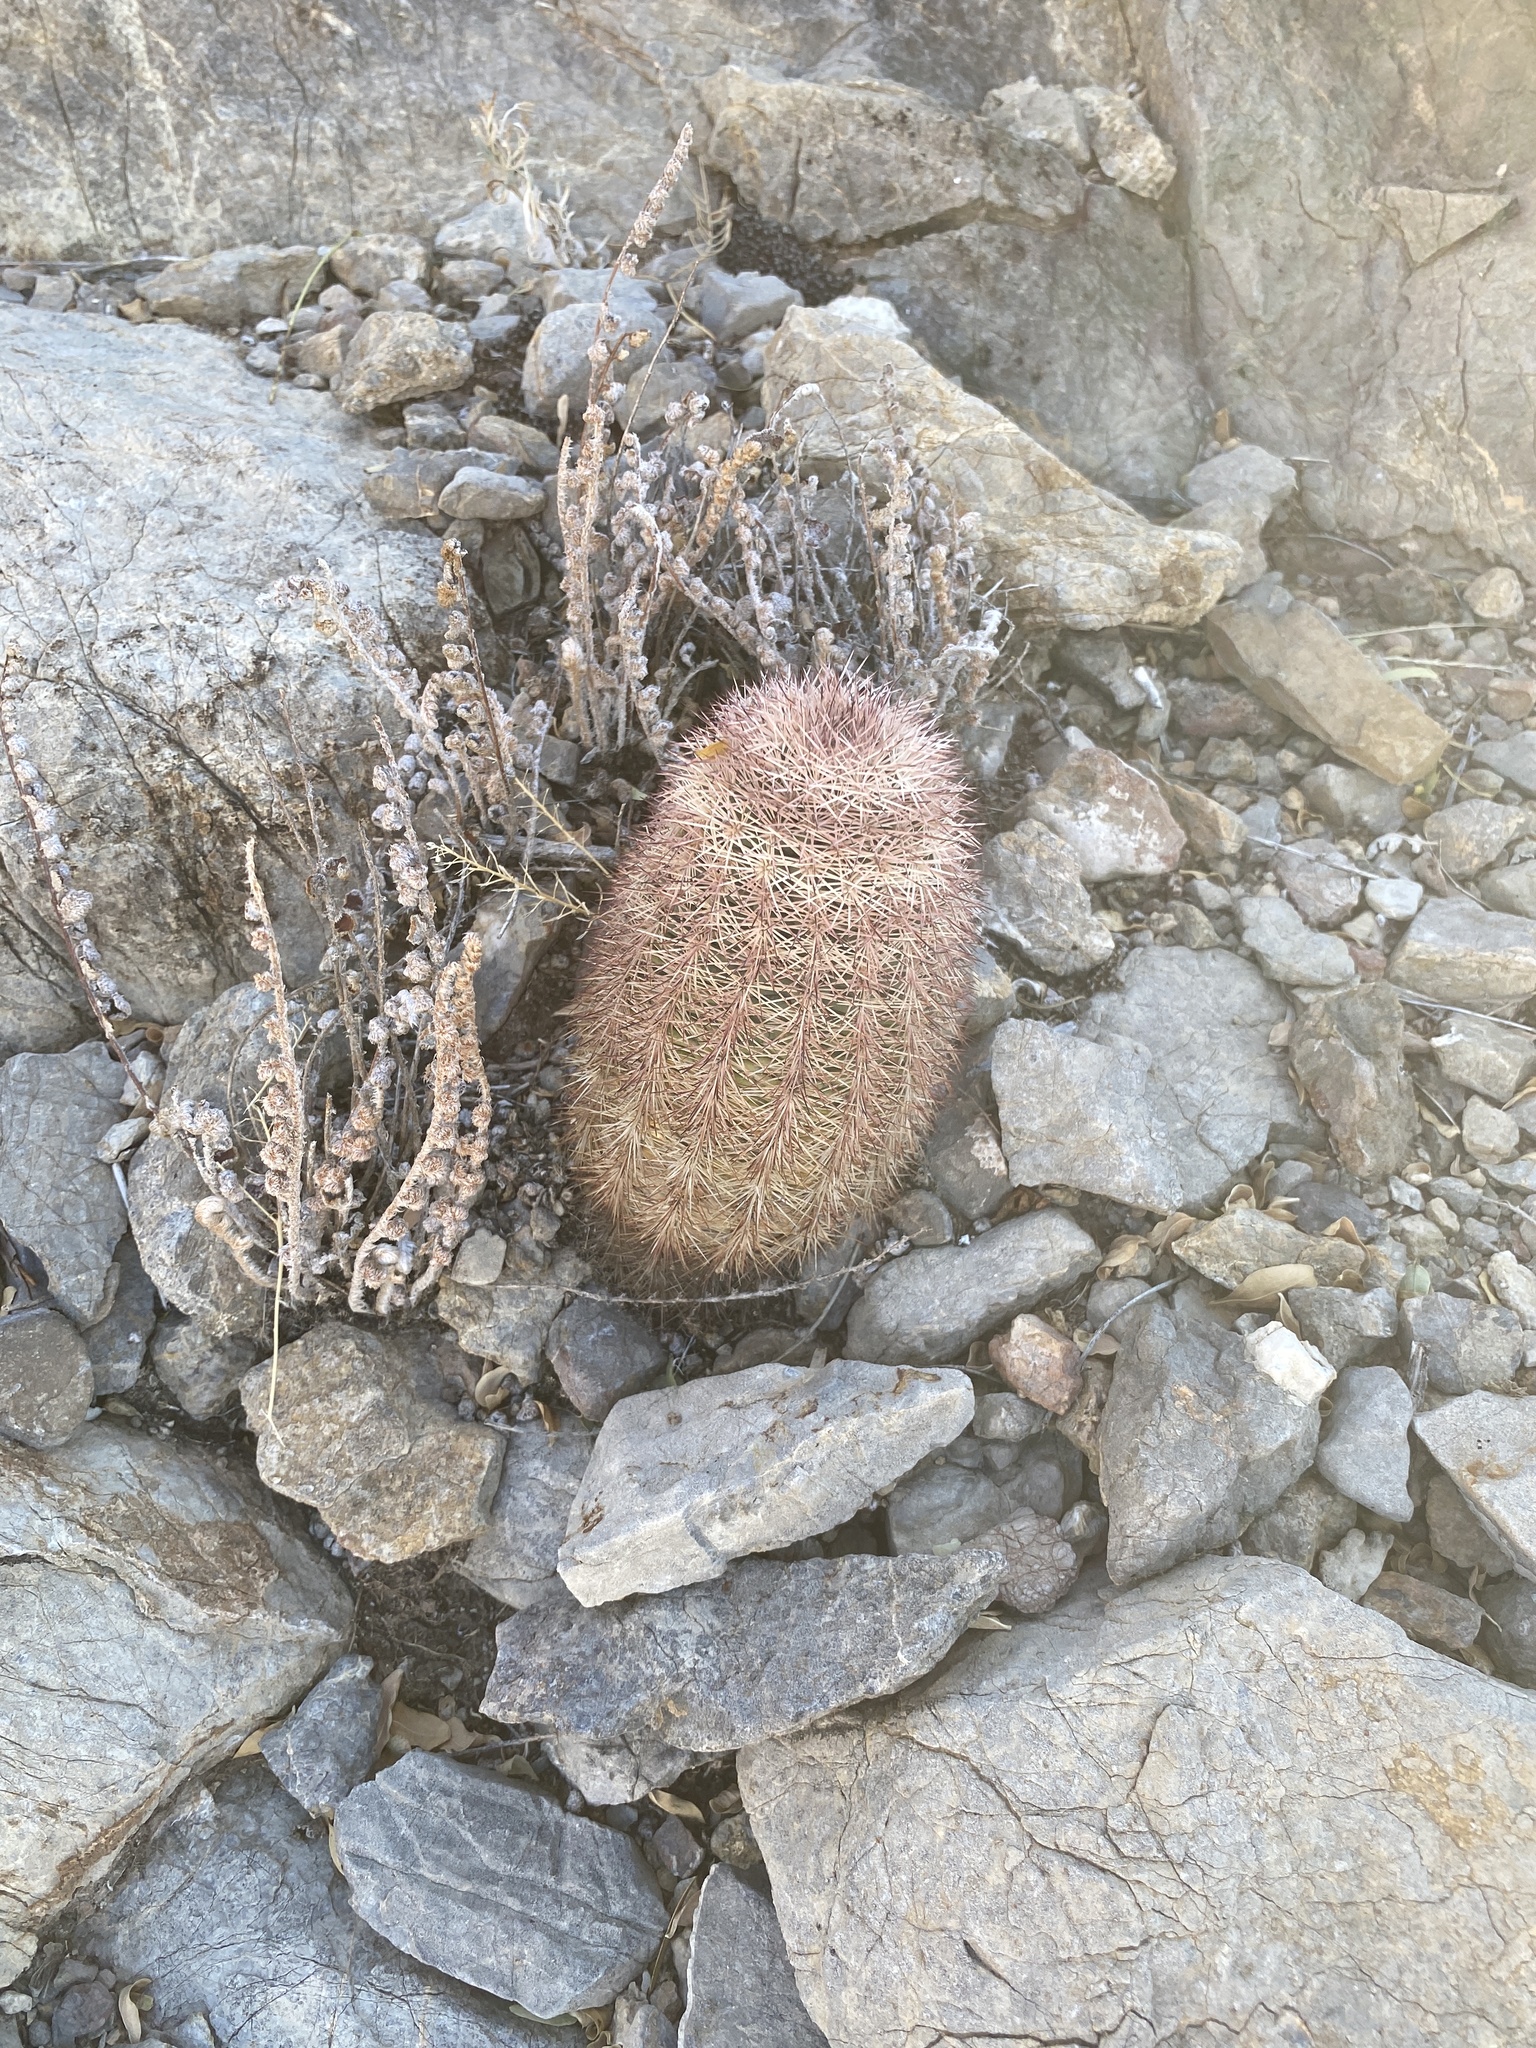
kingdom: Plantae
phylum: Tracheophyta
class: Magnoliopsida
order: Caryophyllales
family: Cactaceae
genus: Echinocereus
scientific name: Echinocereus dasyacanthus
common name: Spiny hedgehog cactus
